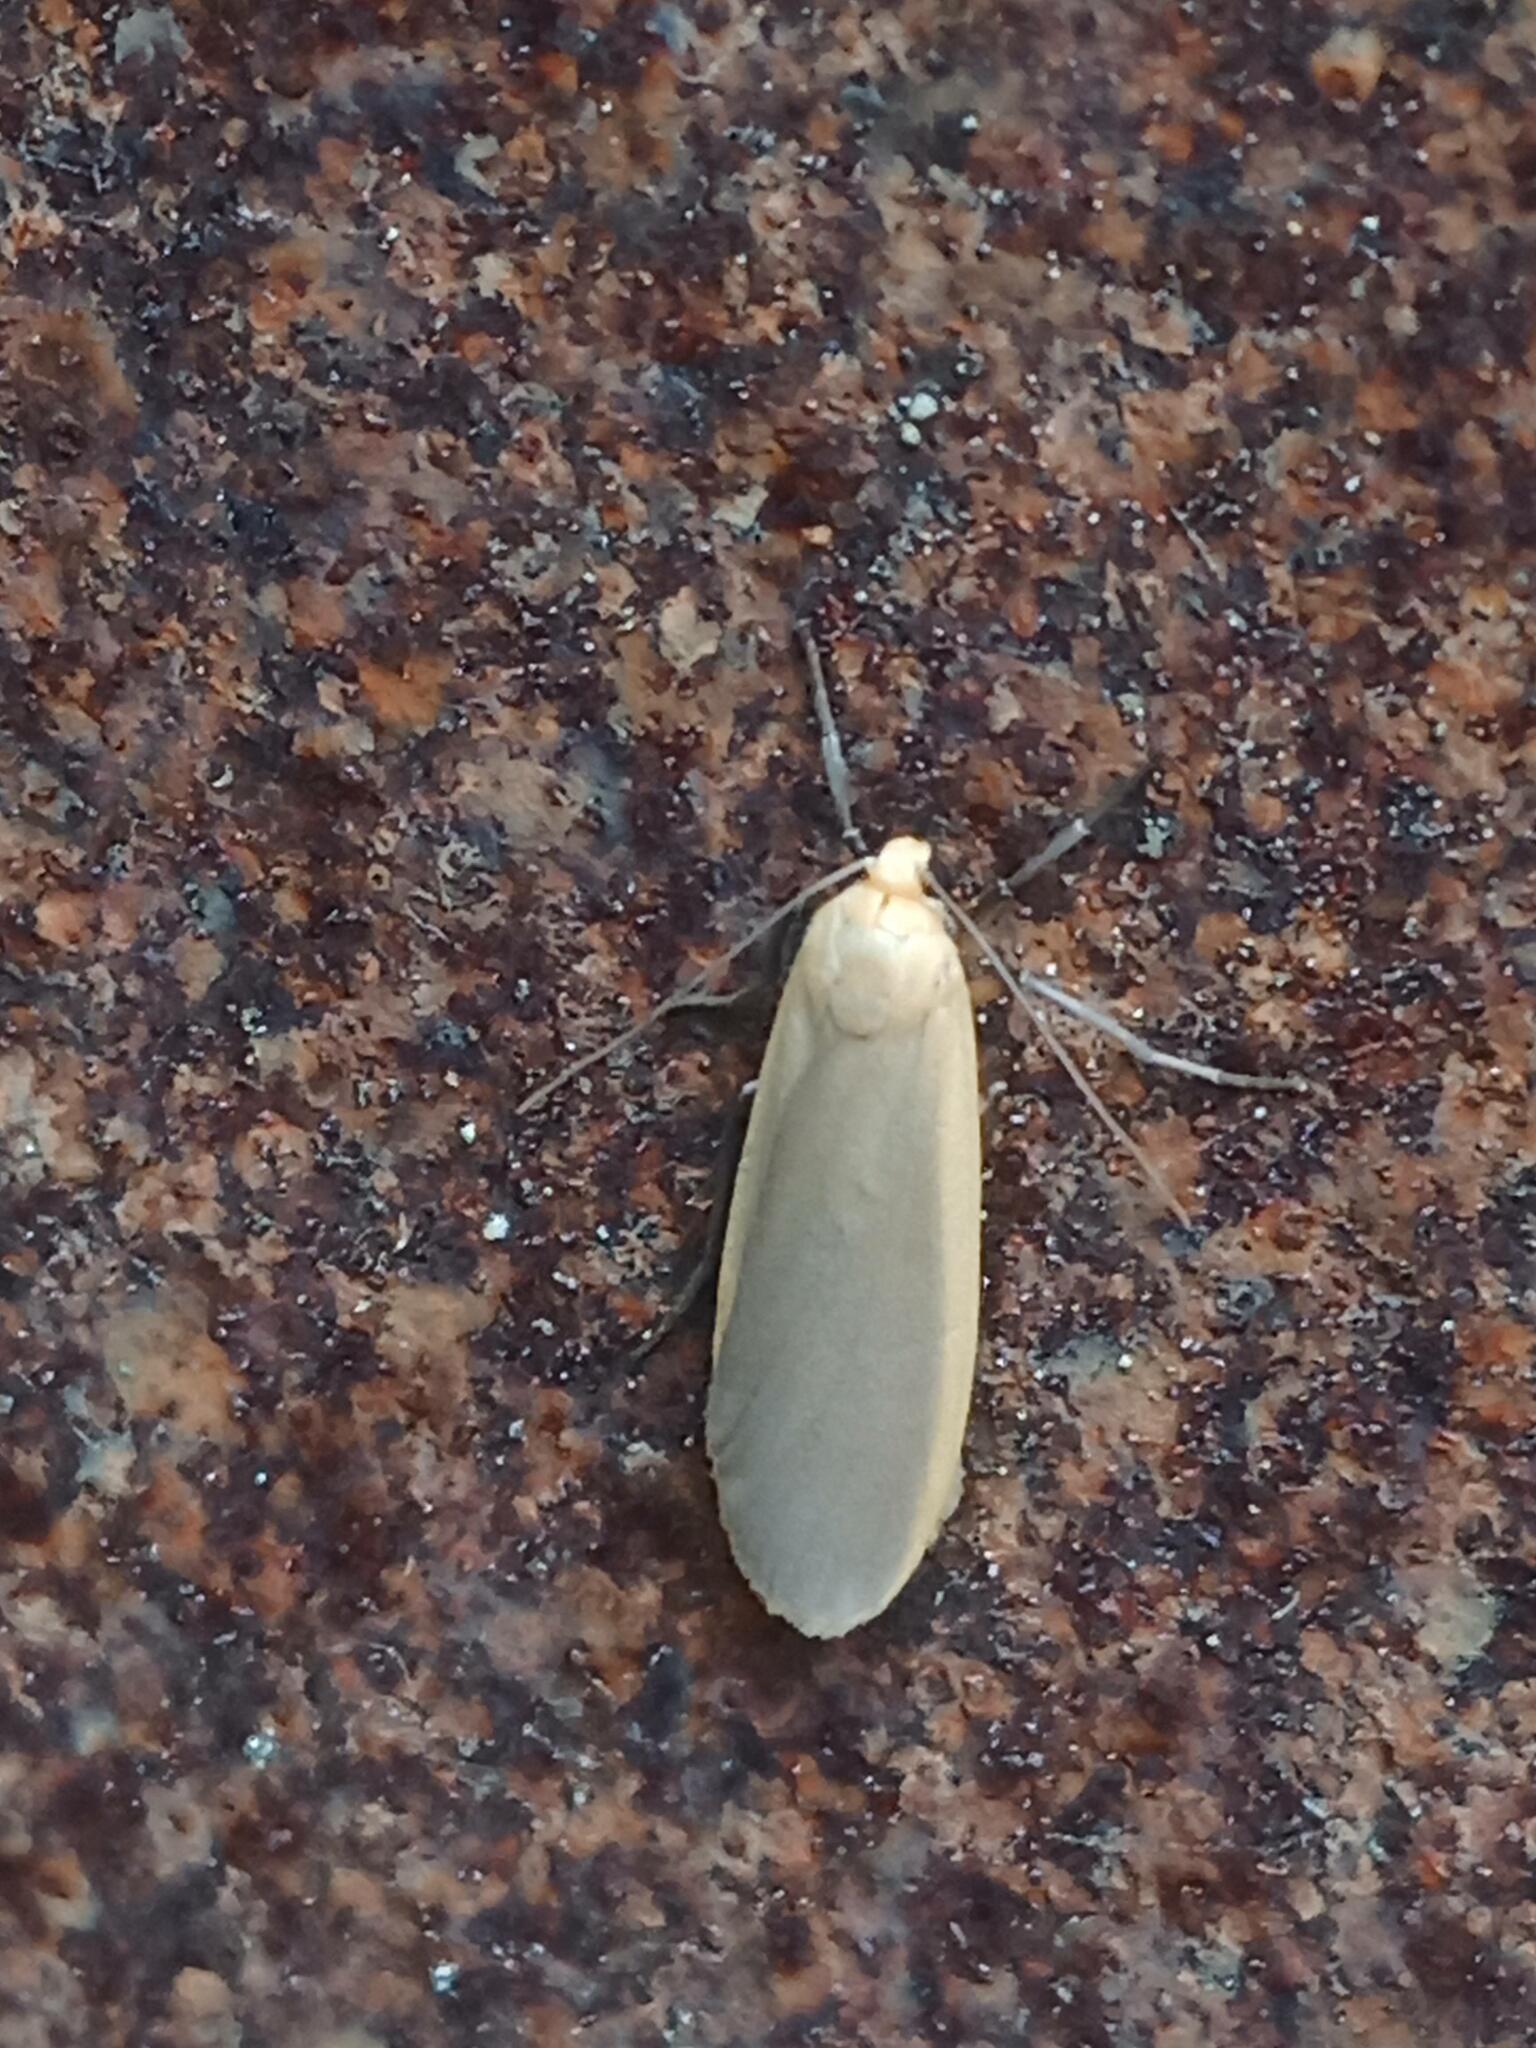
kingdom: Animalia
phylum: Arthropoda
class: Insecta
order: Lepidoptera
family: Erebidae
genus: Collita
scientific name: Collita griseola
